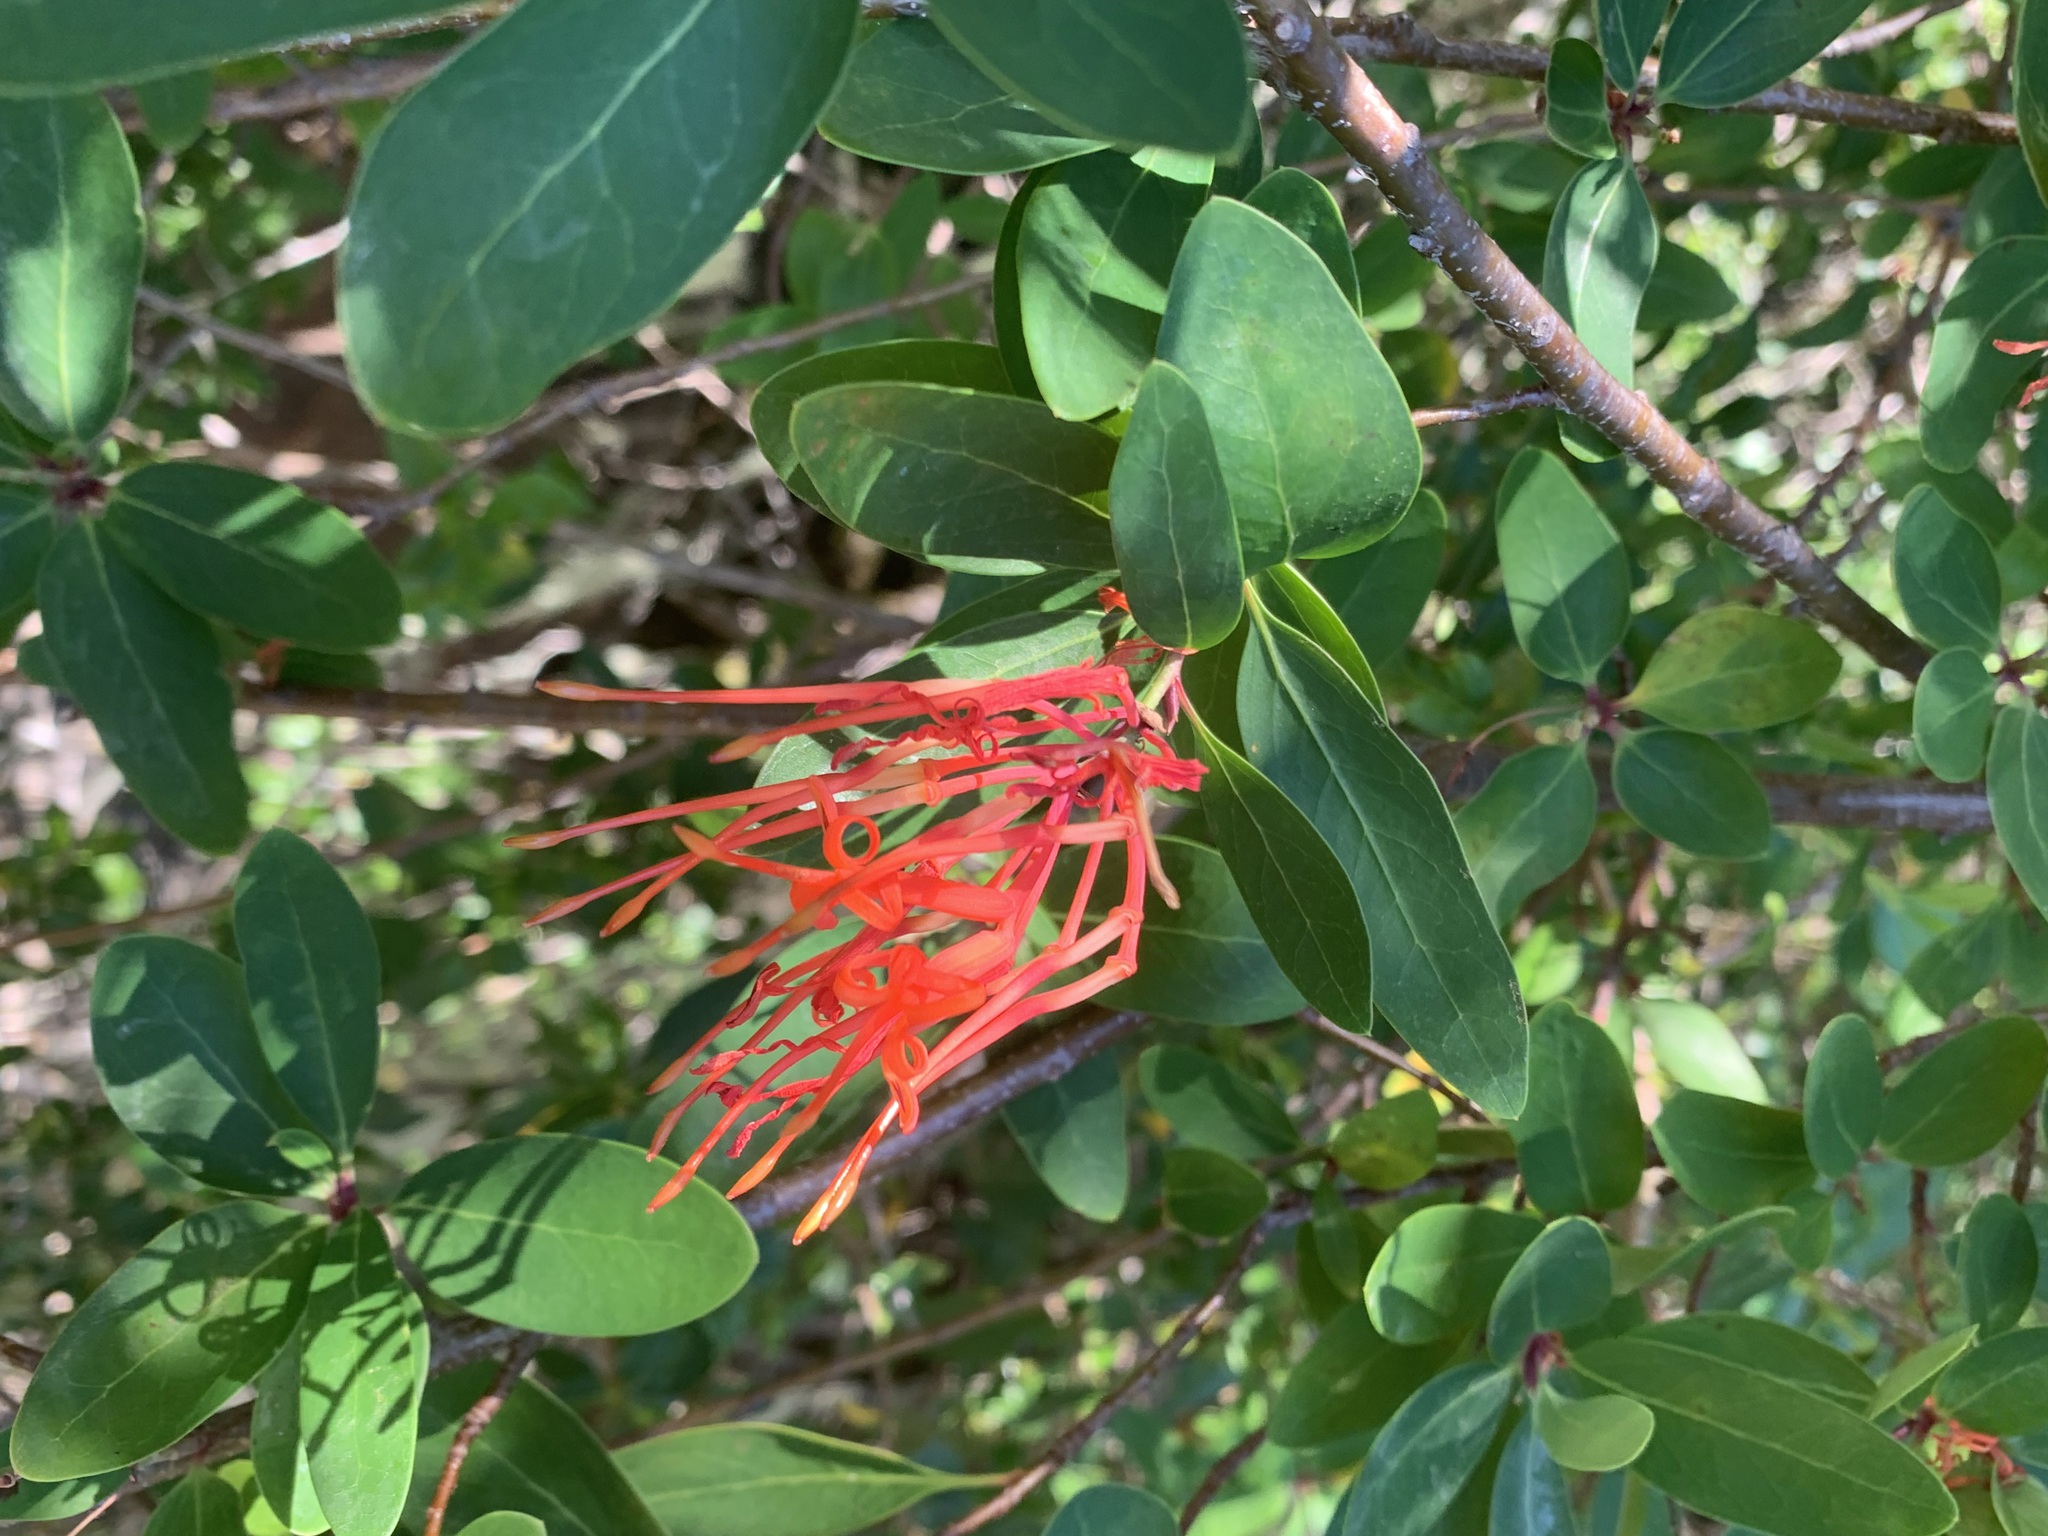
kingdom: Plantae
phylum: Tracheophyta
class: Magnoliopsida
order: Proteales
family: Proteaceae
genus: Embothrium
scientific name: Embothrium coccineum
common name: Chilean firebush
